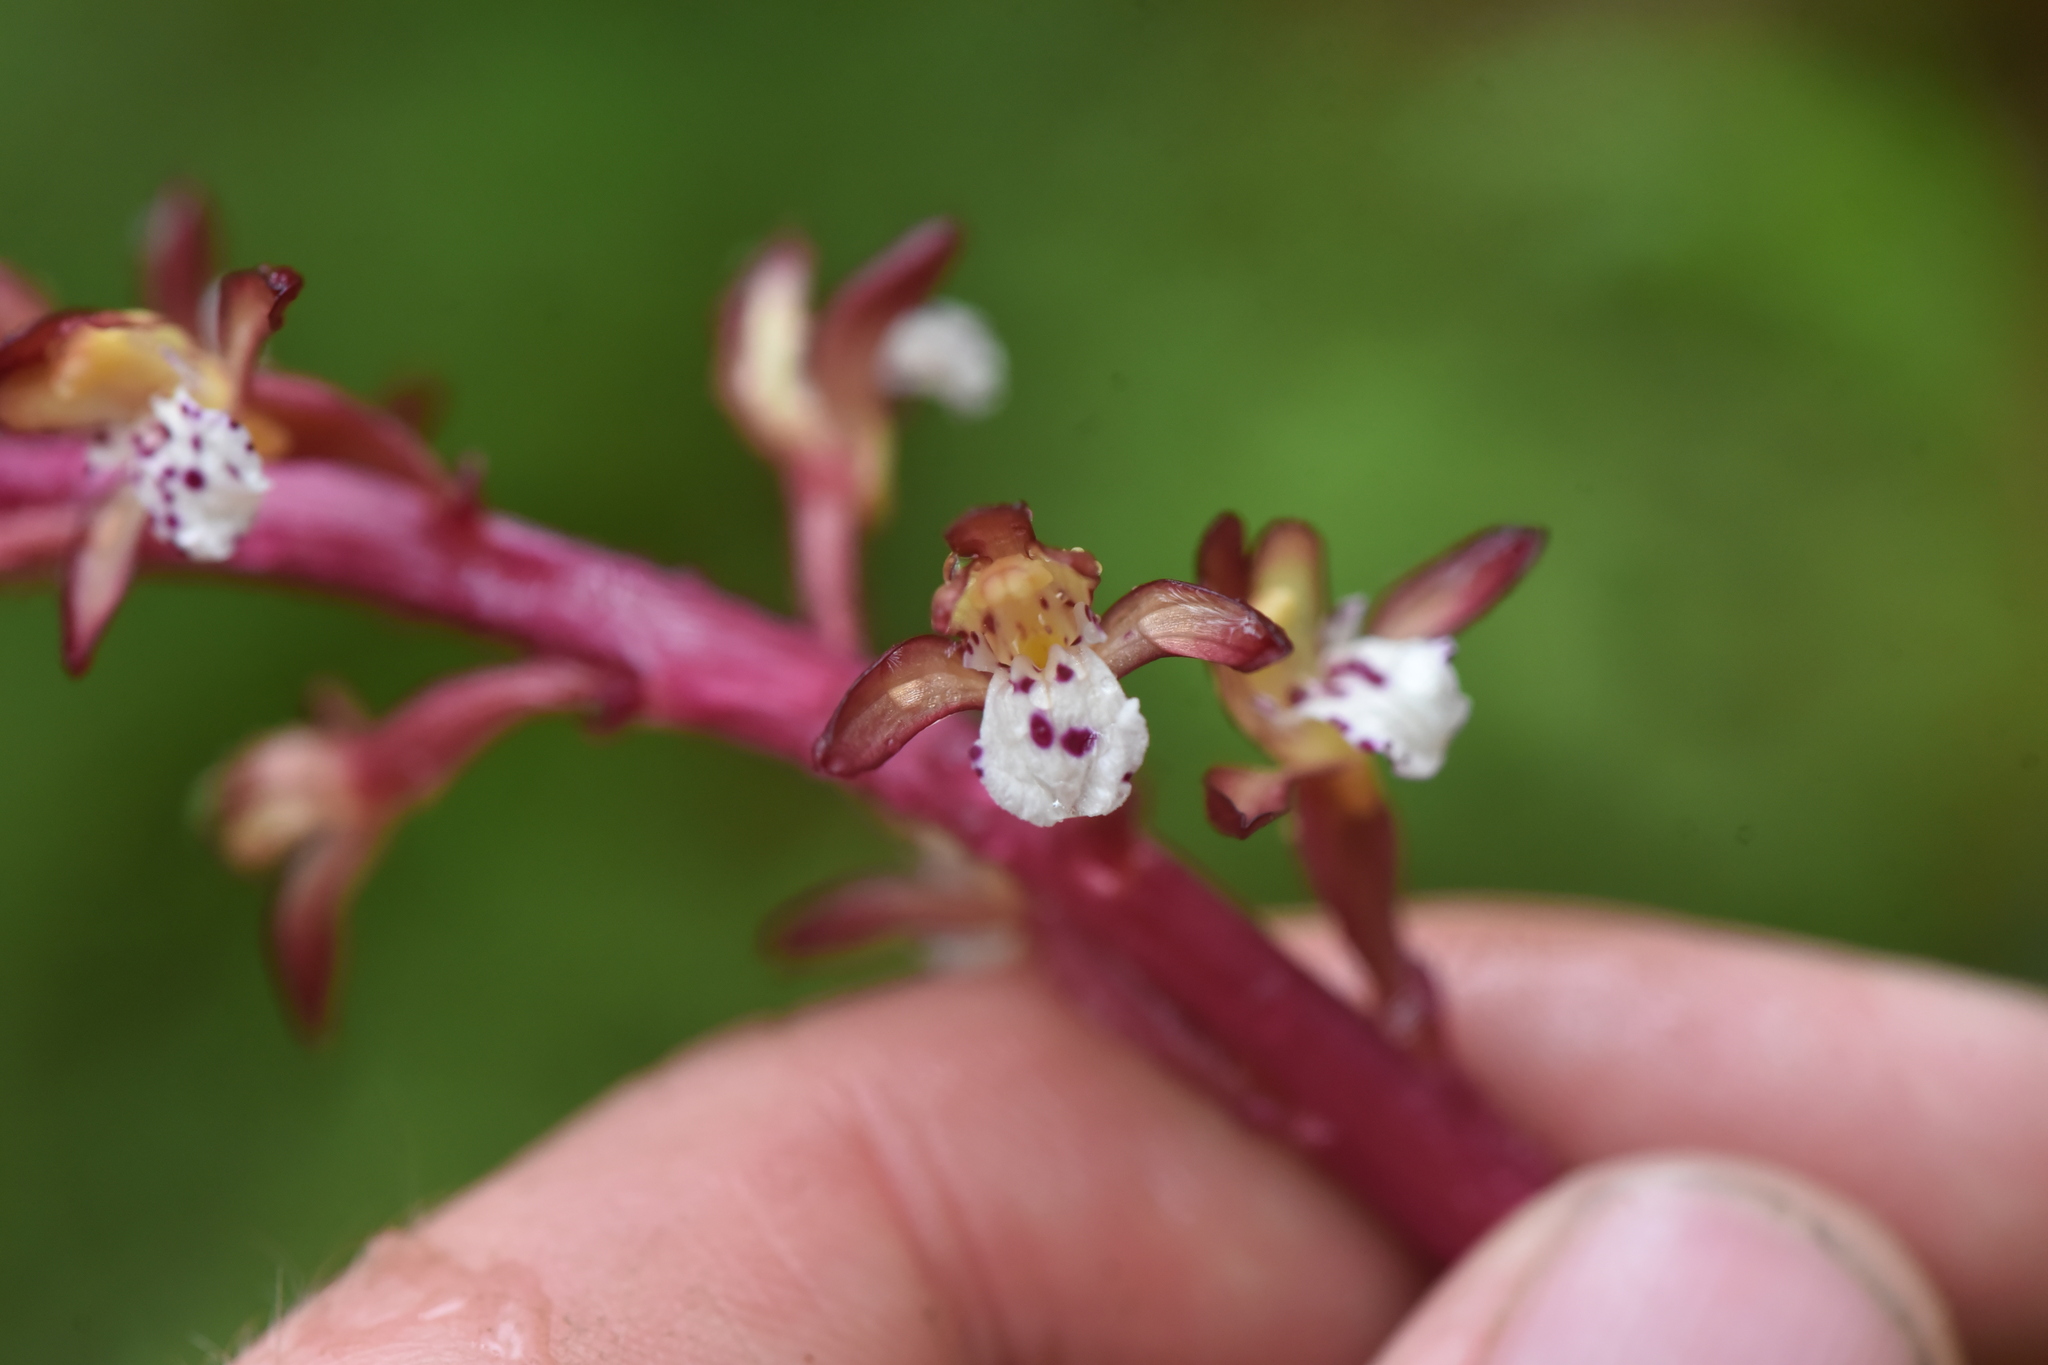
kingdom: Plantae
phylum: Tracheophyta
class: Liliopsida
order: Asparagales
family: Orchidaceae
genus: Corallorhiza
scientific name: Corallorhiza maculata
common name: Spotted coralroot
